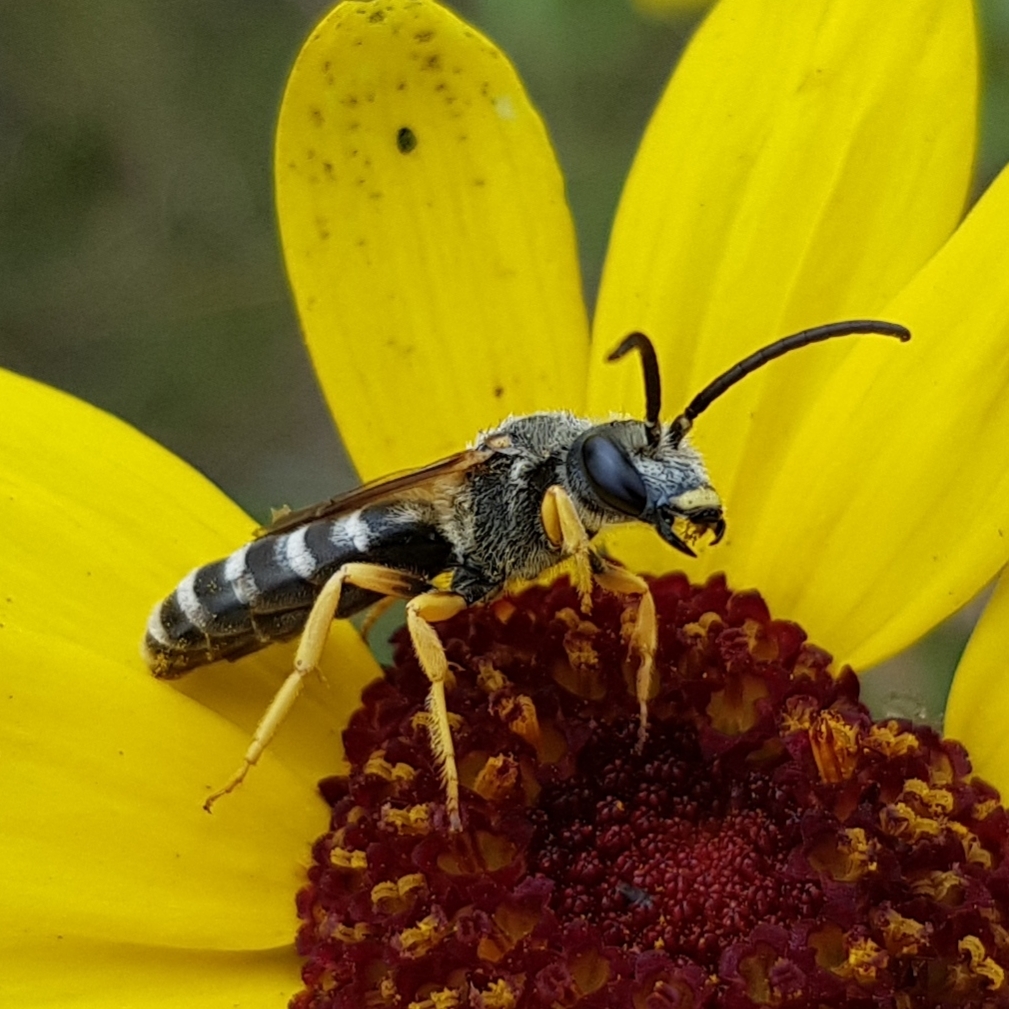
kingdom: Animalia
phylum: Arthropoda
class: Insecta
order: Hymenoptera
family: Halictidae
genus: Halictus
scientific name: Halictus scabiosae
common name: Great banded furrow bee
